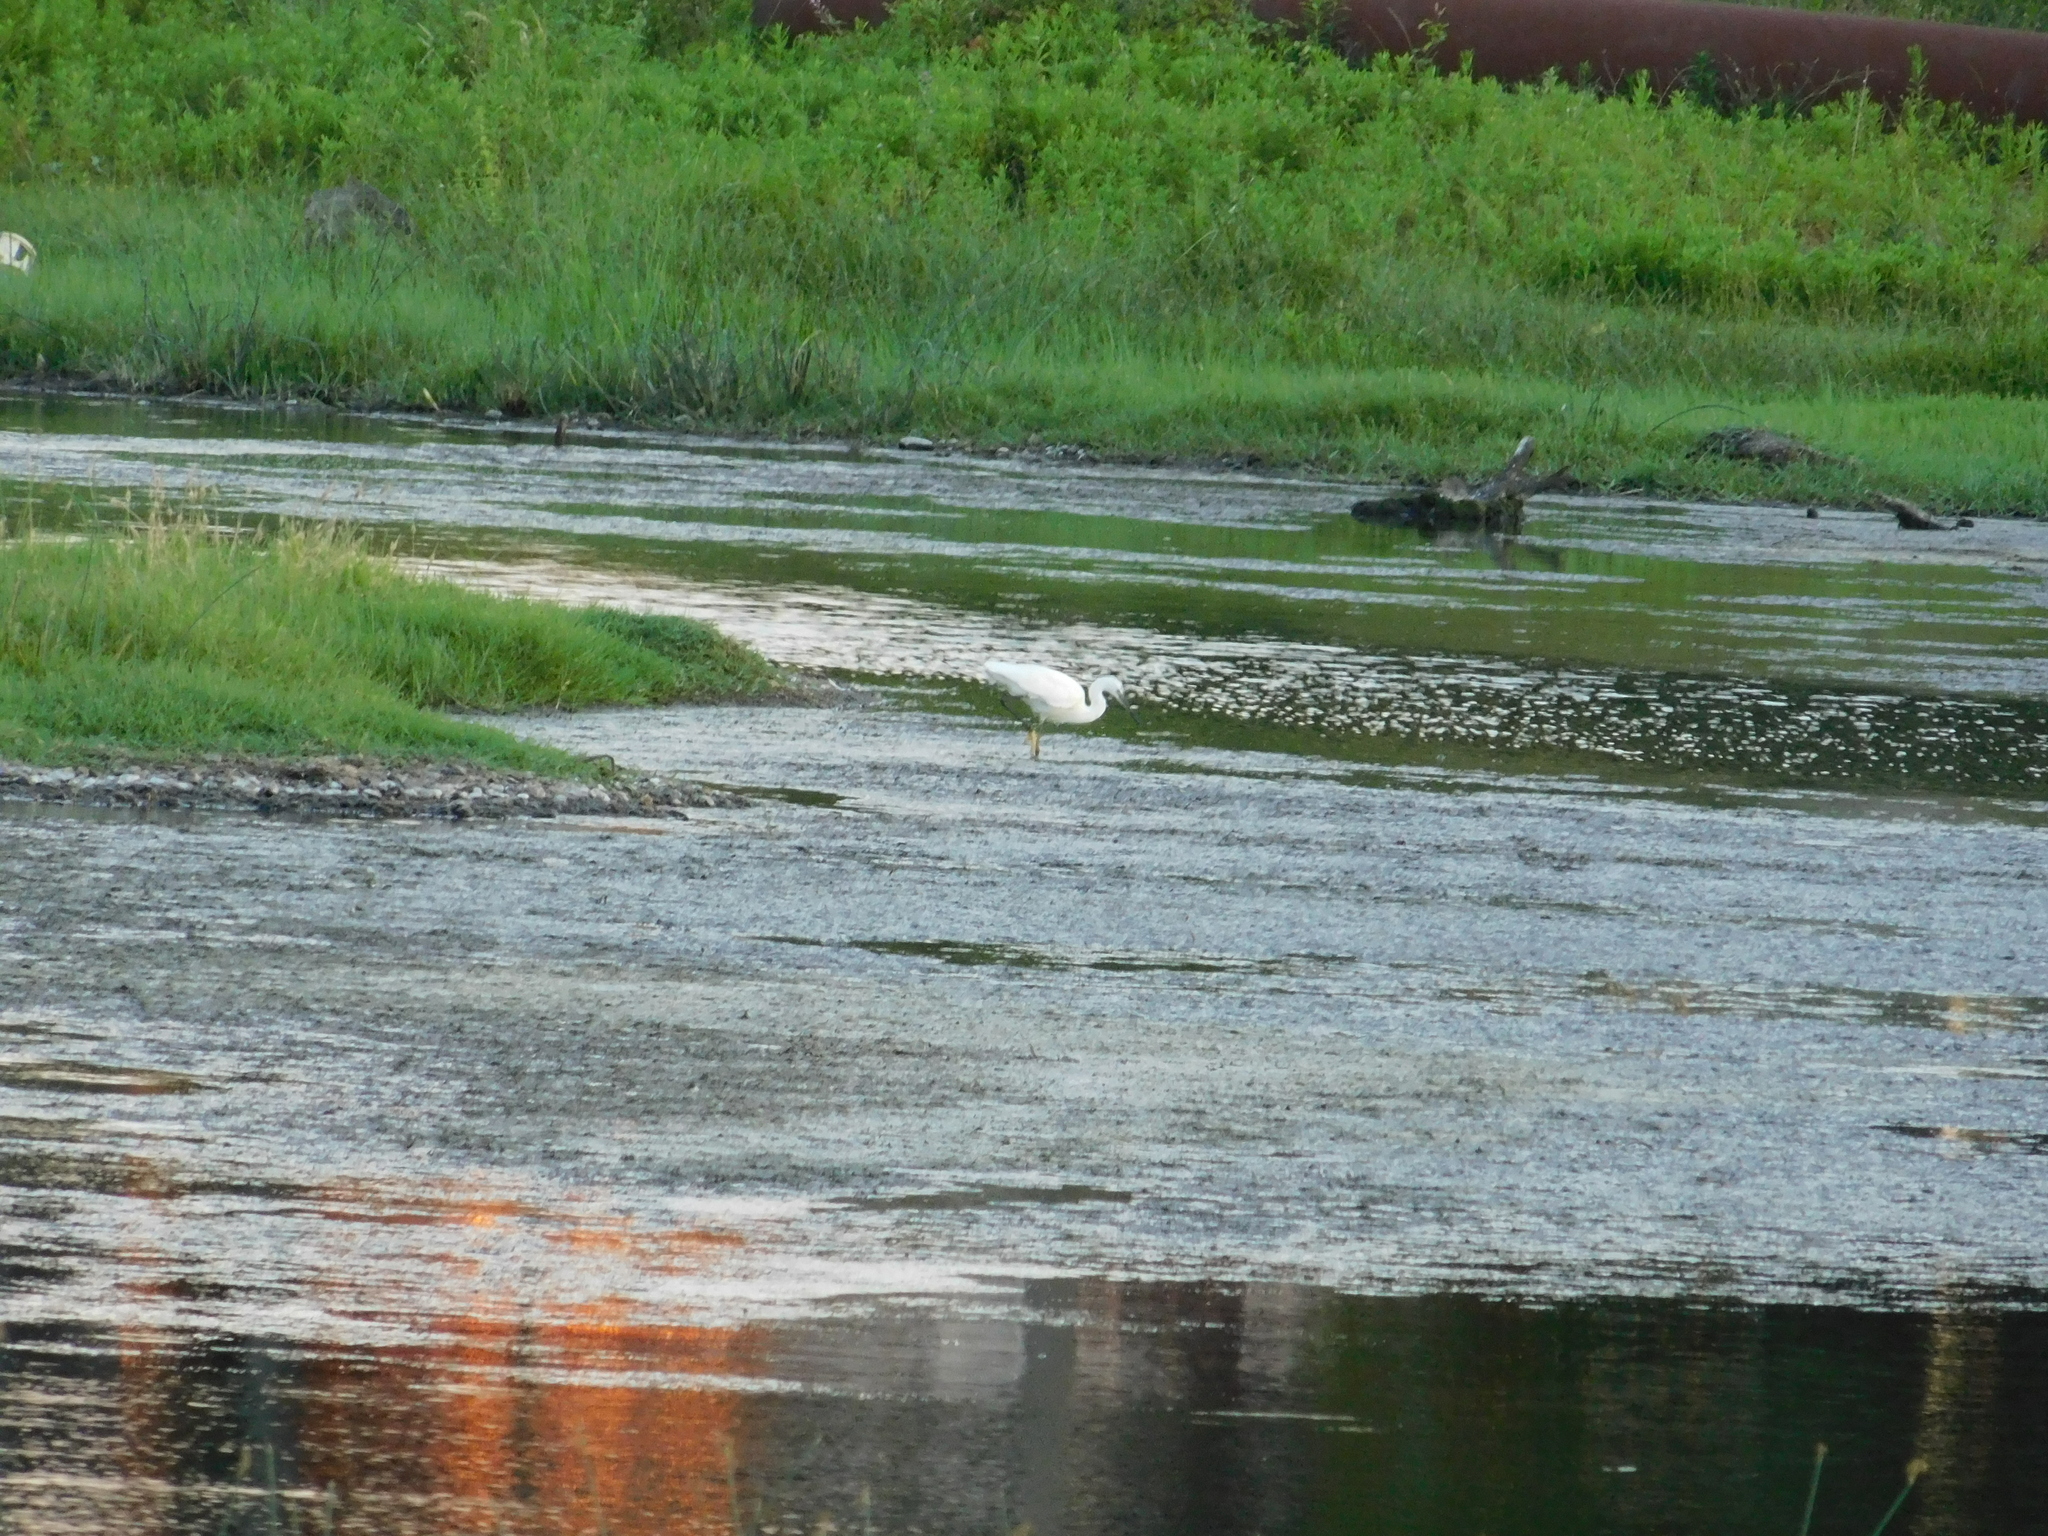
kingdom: Animalia
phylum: Chordata
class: Aves
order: Pelecaniformes
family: Ardeidae
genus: Egretta
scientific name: Egretta garzetta
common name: Little egret
